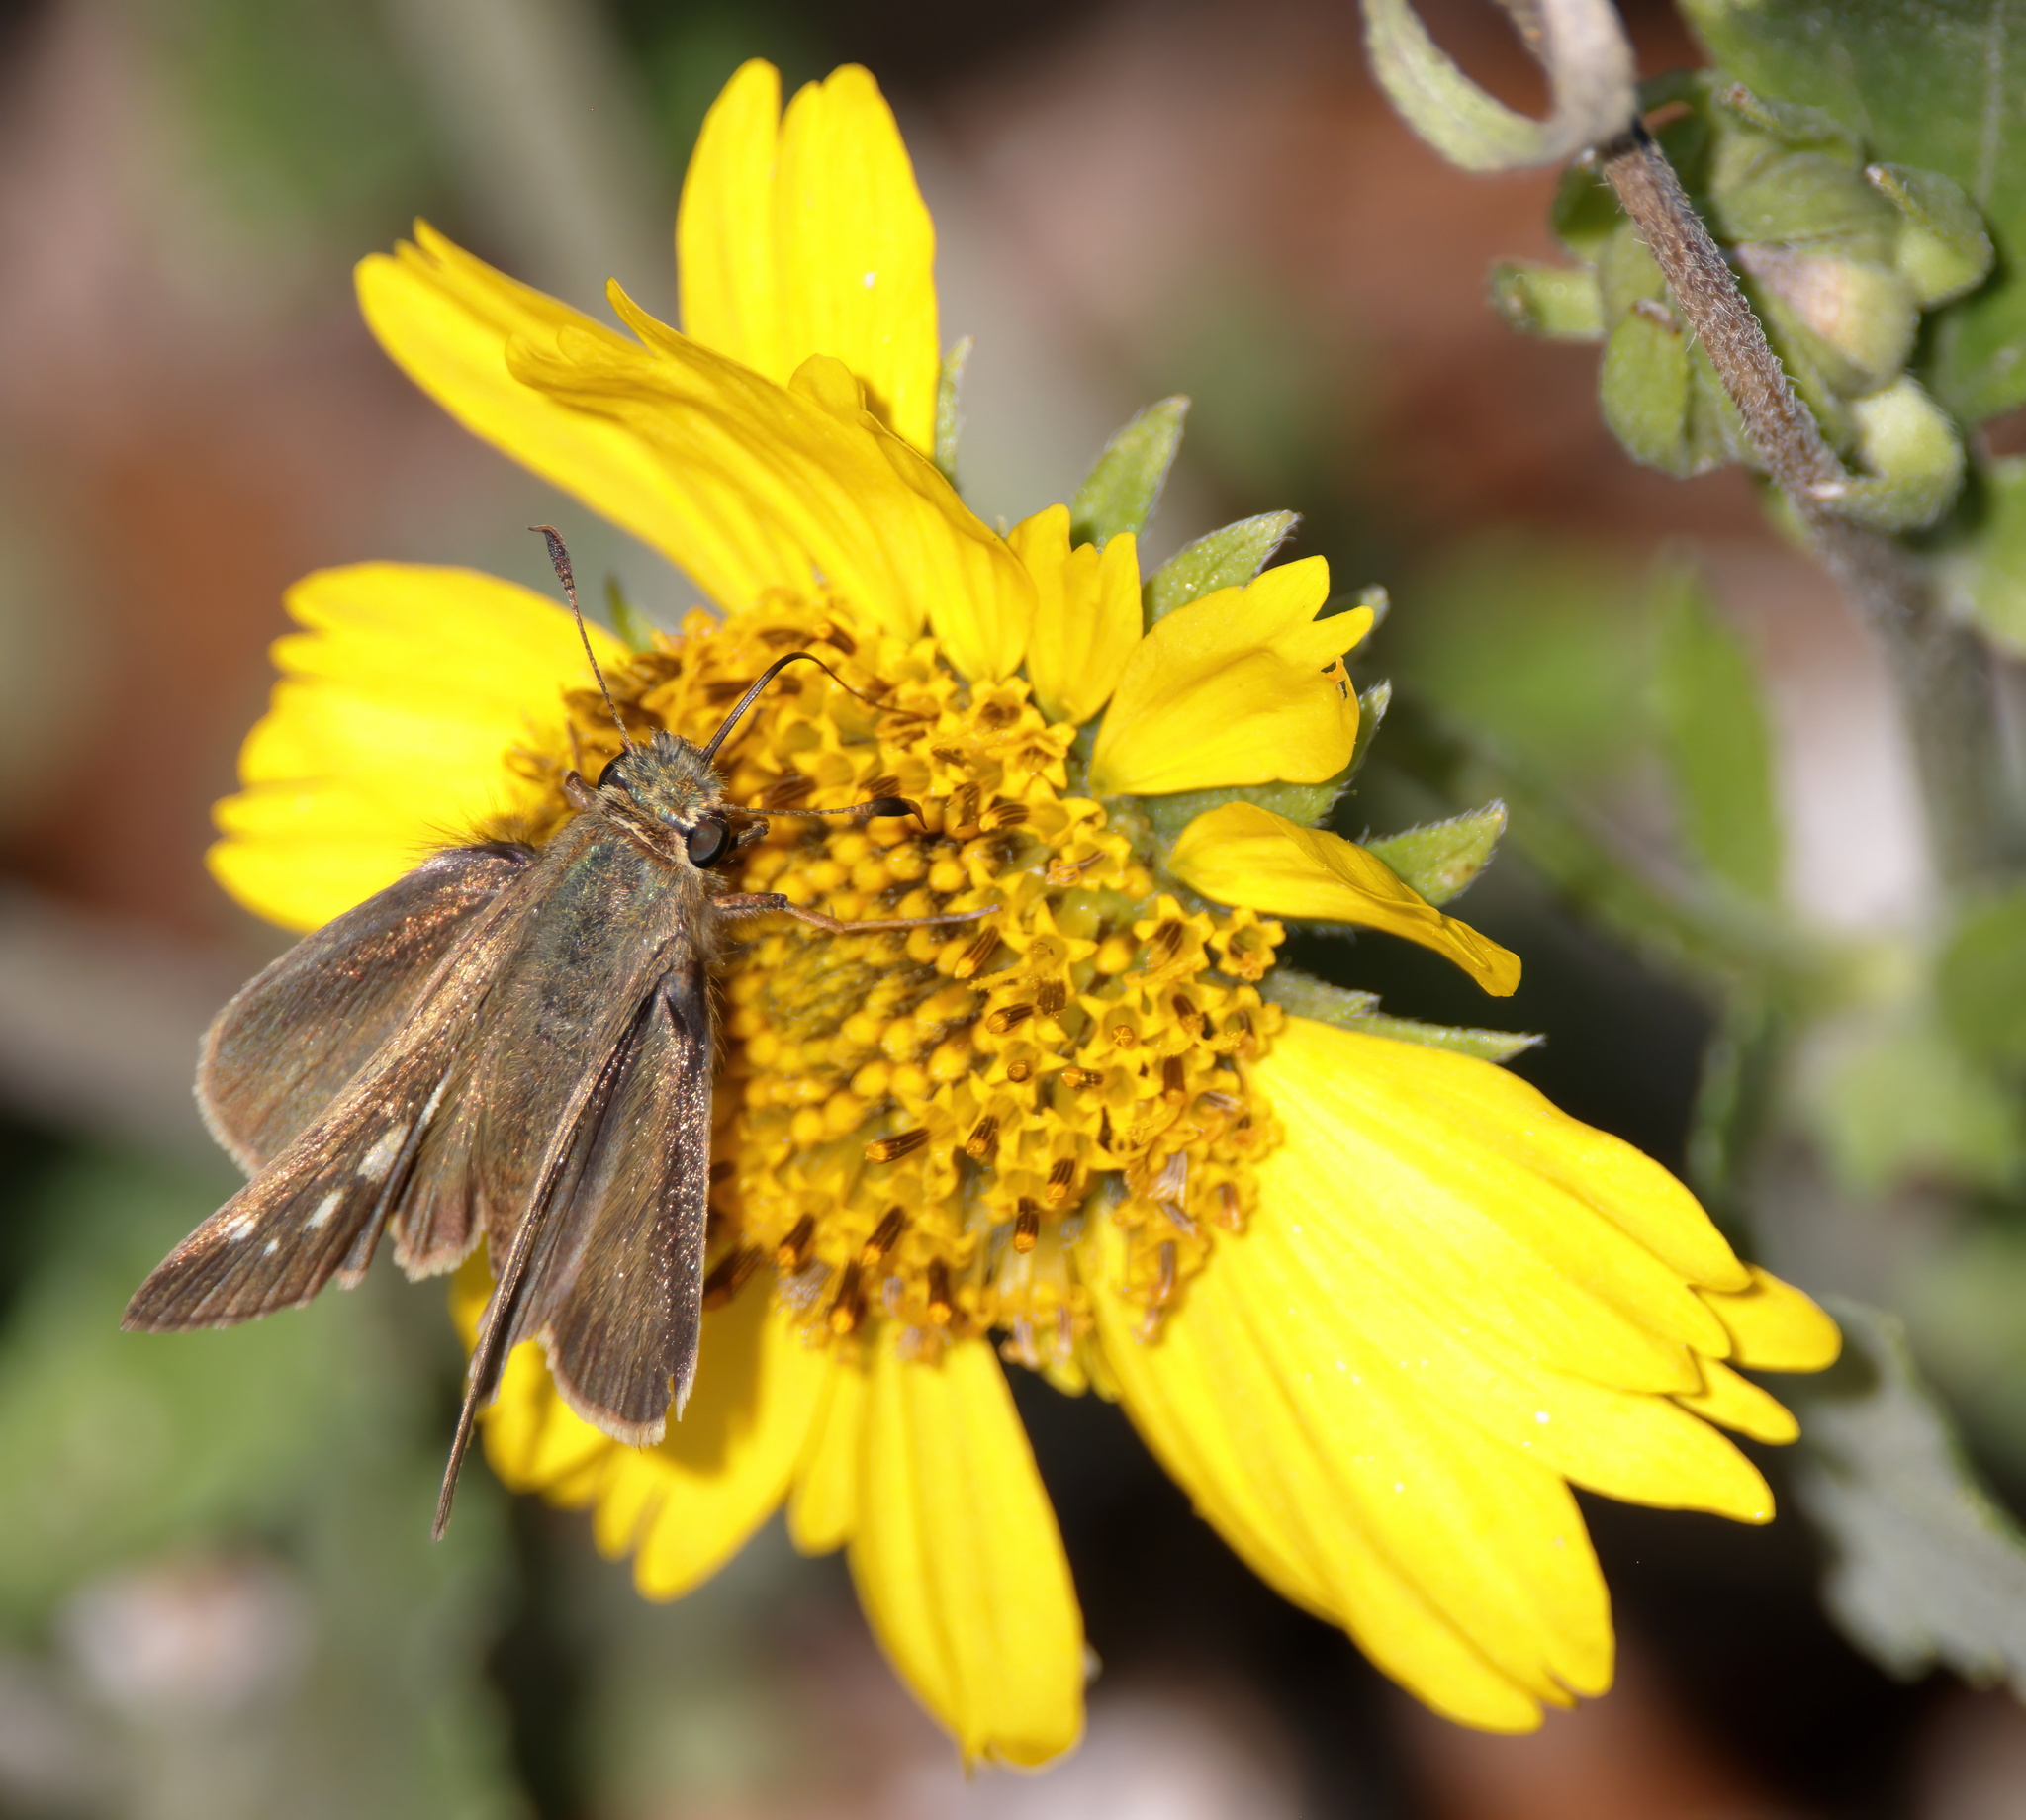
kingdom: Animalia
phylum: Arthropoda
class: Insecta
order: Lepidoptera
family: Hesperiidae
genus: Panoquina
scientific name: Panoquina panoquinoides
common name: Beach skipper
